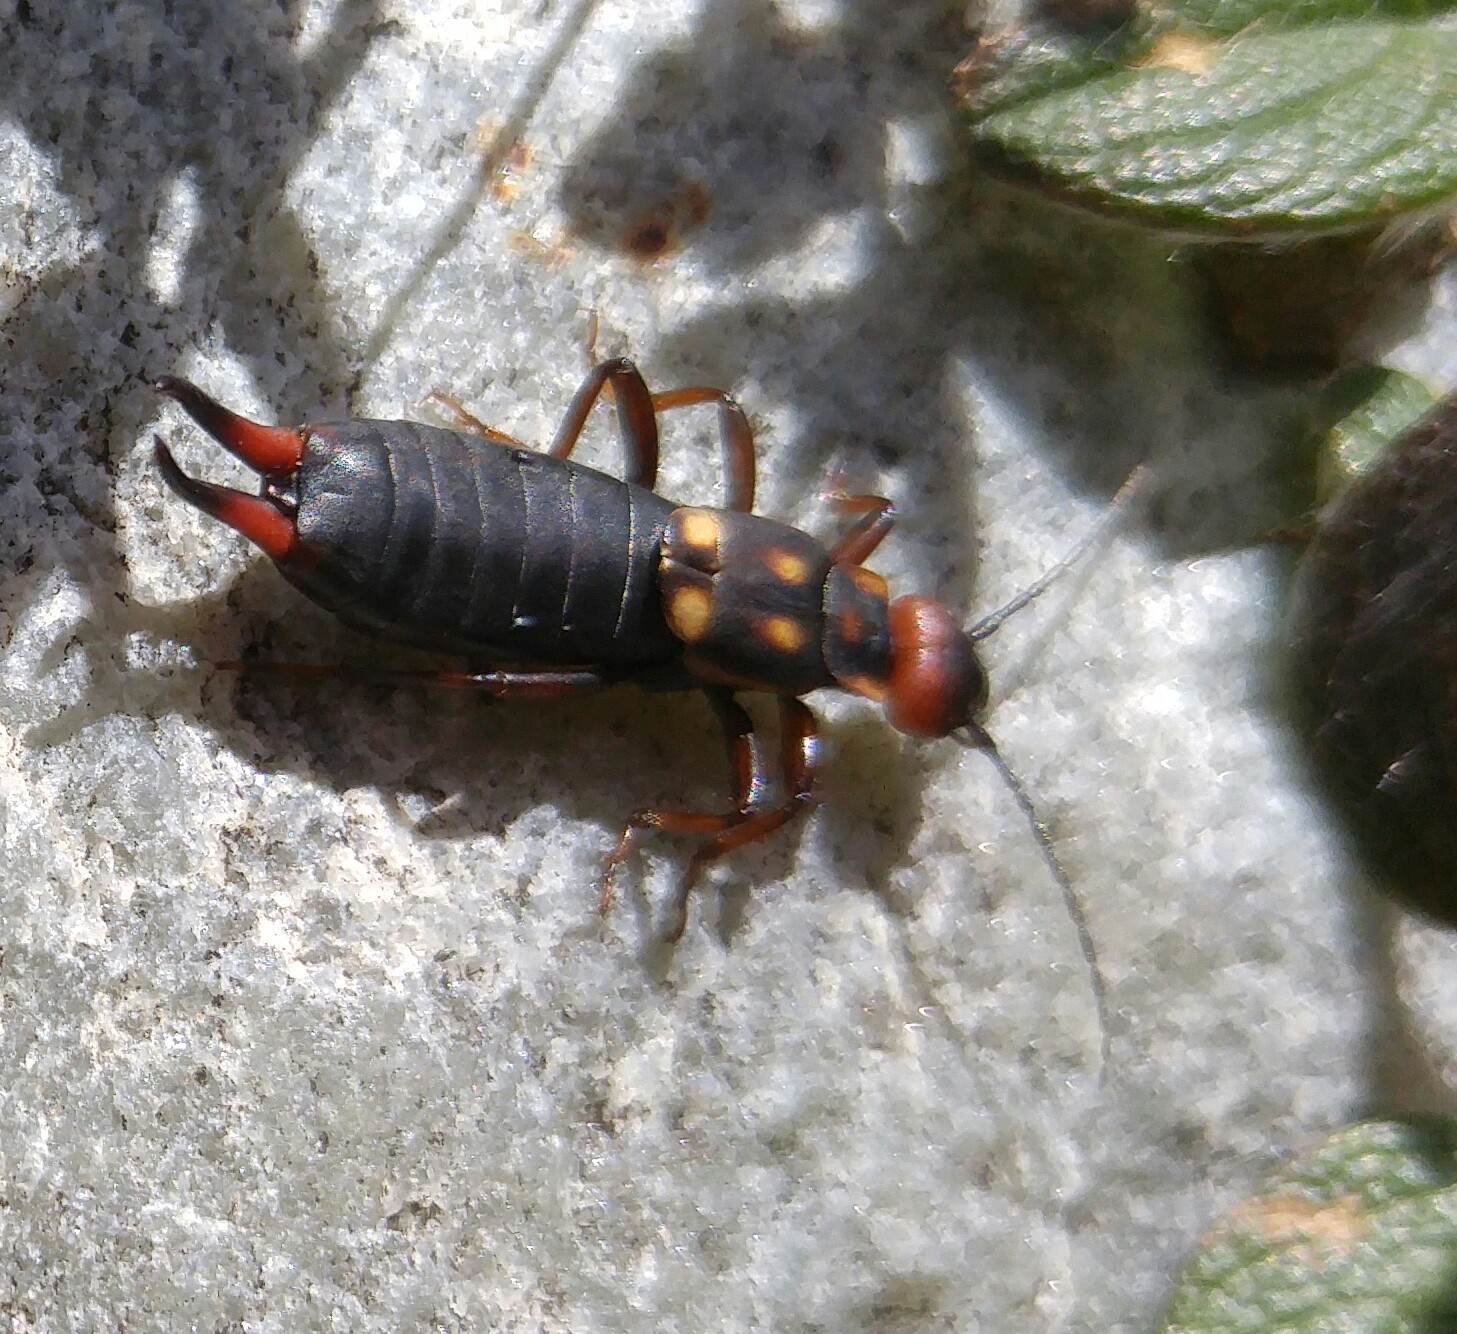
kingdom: Animalia
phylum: Arthropoda
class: Insecta
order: Dermaptera
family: Forficulidae
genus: Anechura
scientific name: Anechura bipunctata
